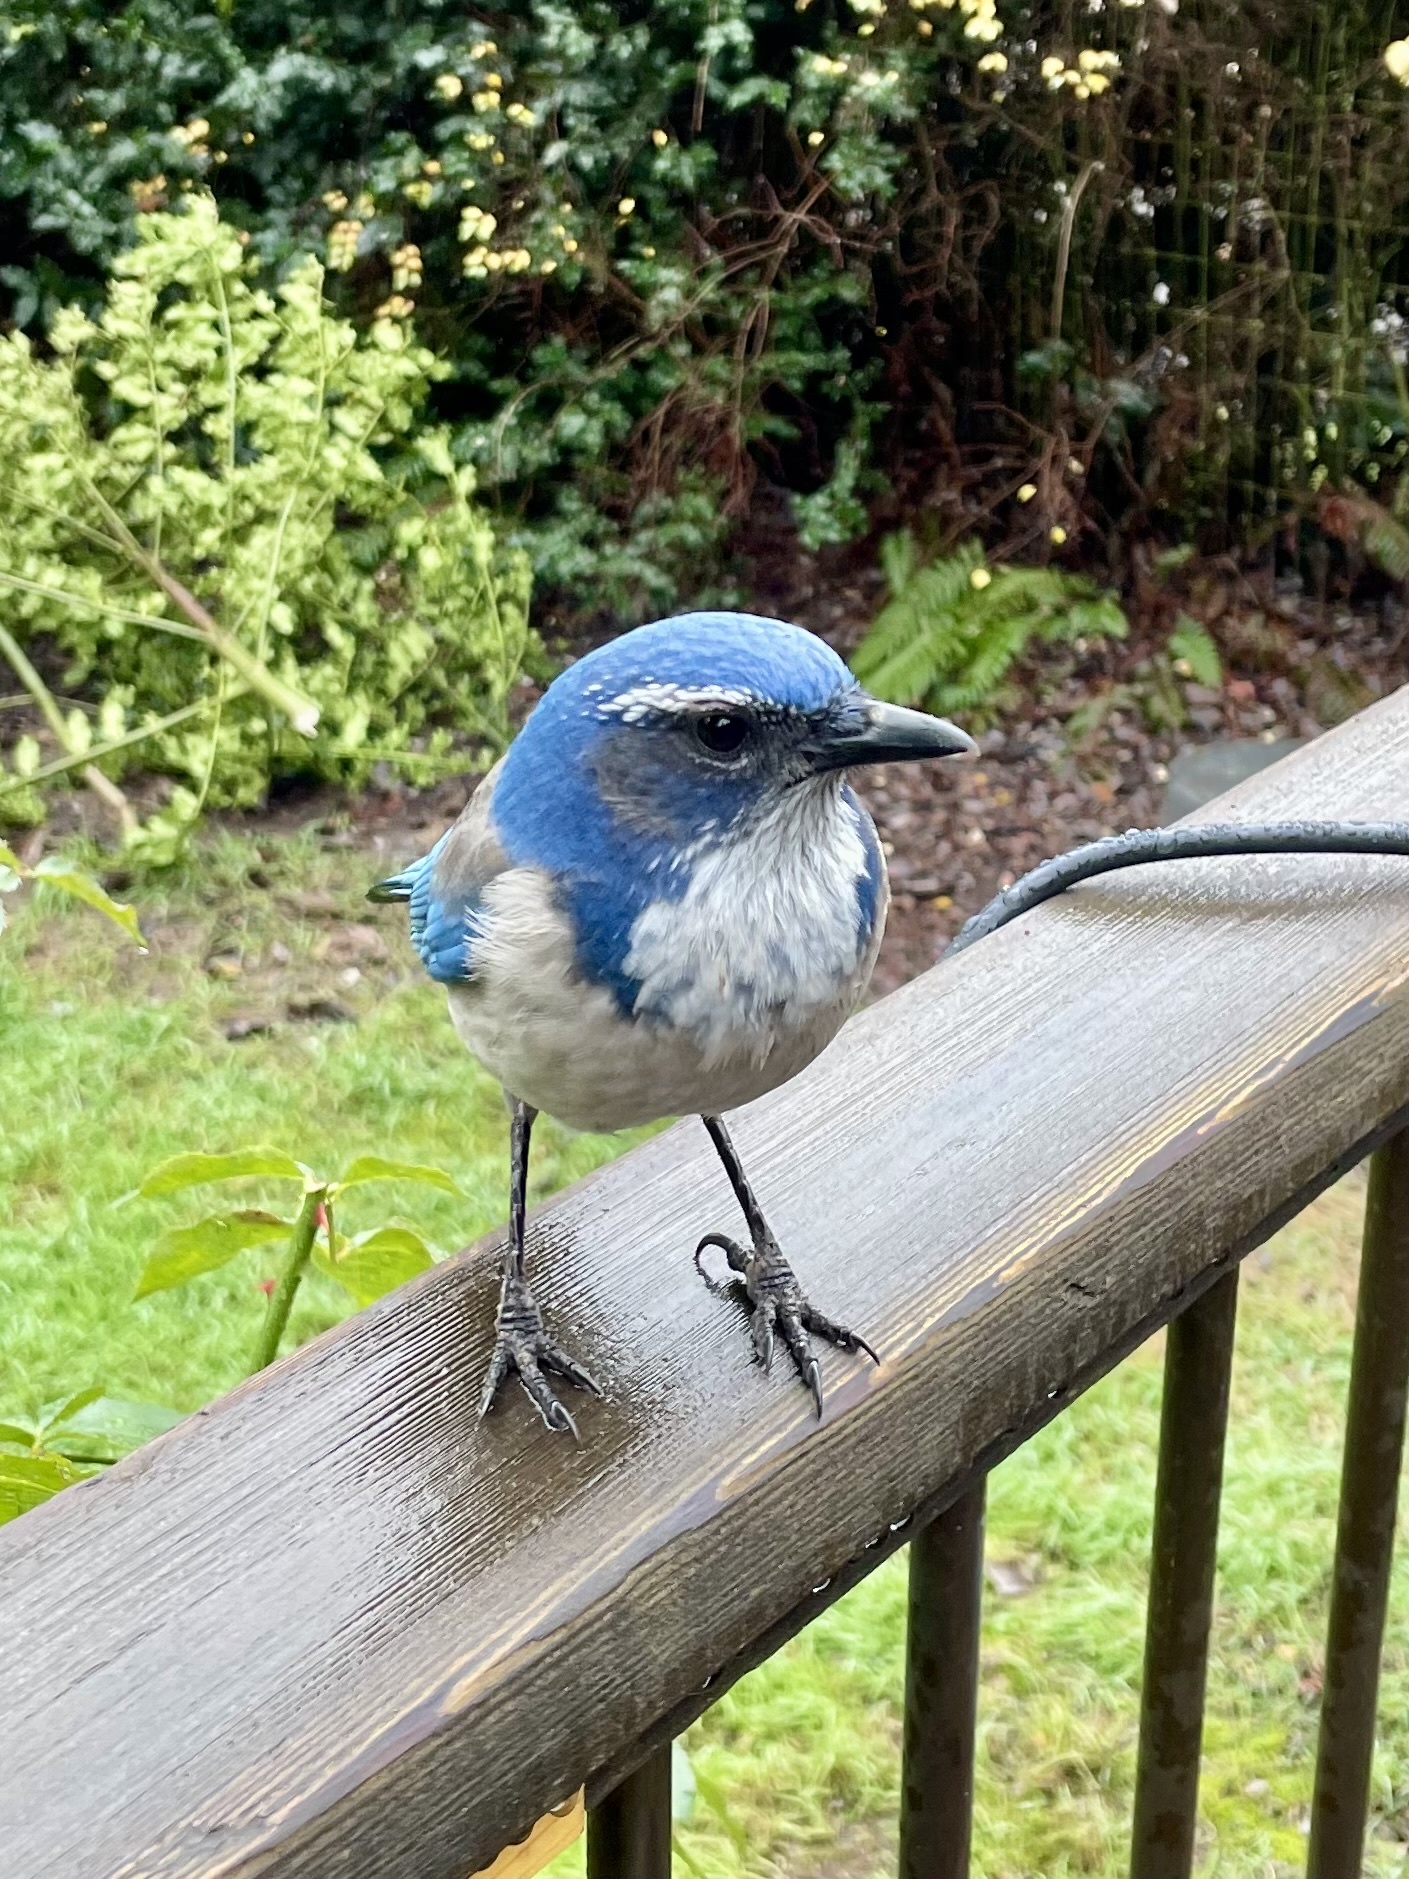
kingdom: Animalia
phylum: Chordata
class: Aves
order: Passeriformes
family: Corvidae
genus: Aphelocoma
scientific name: Aphelocoma californica
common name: California scrub-jay
